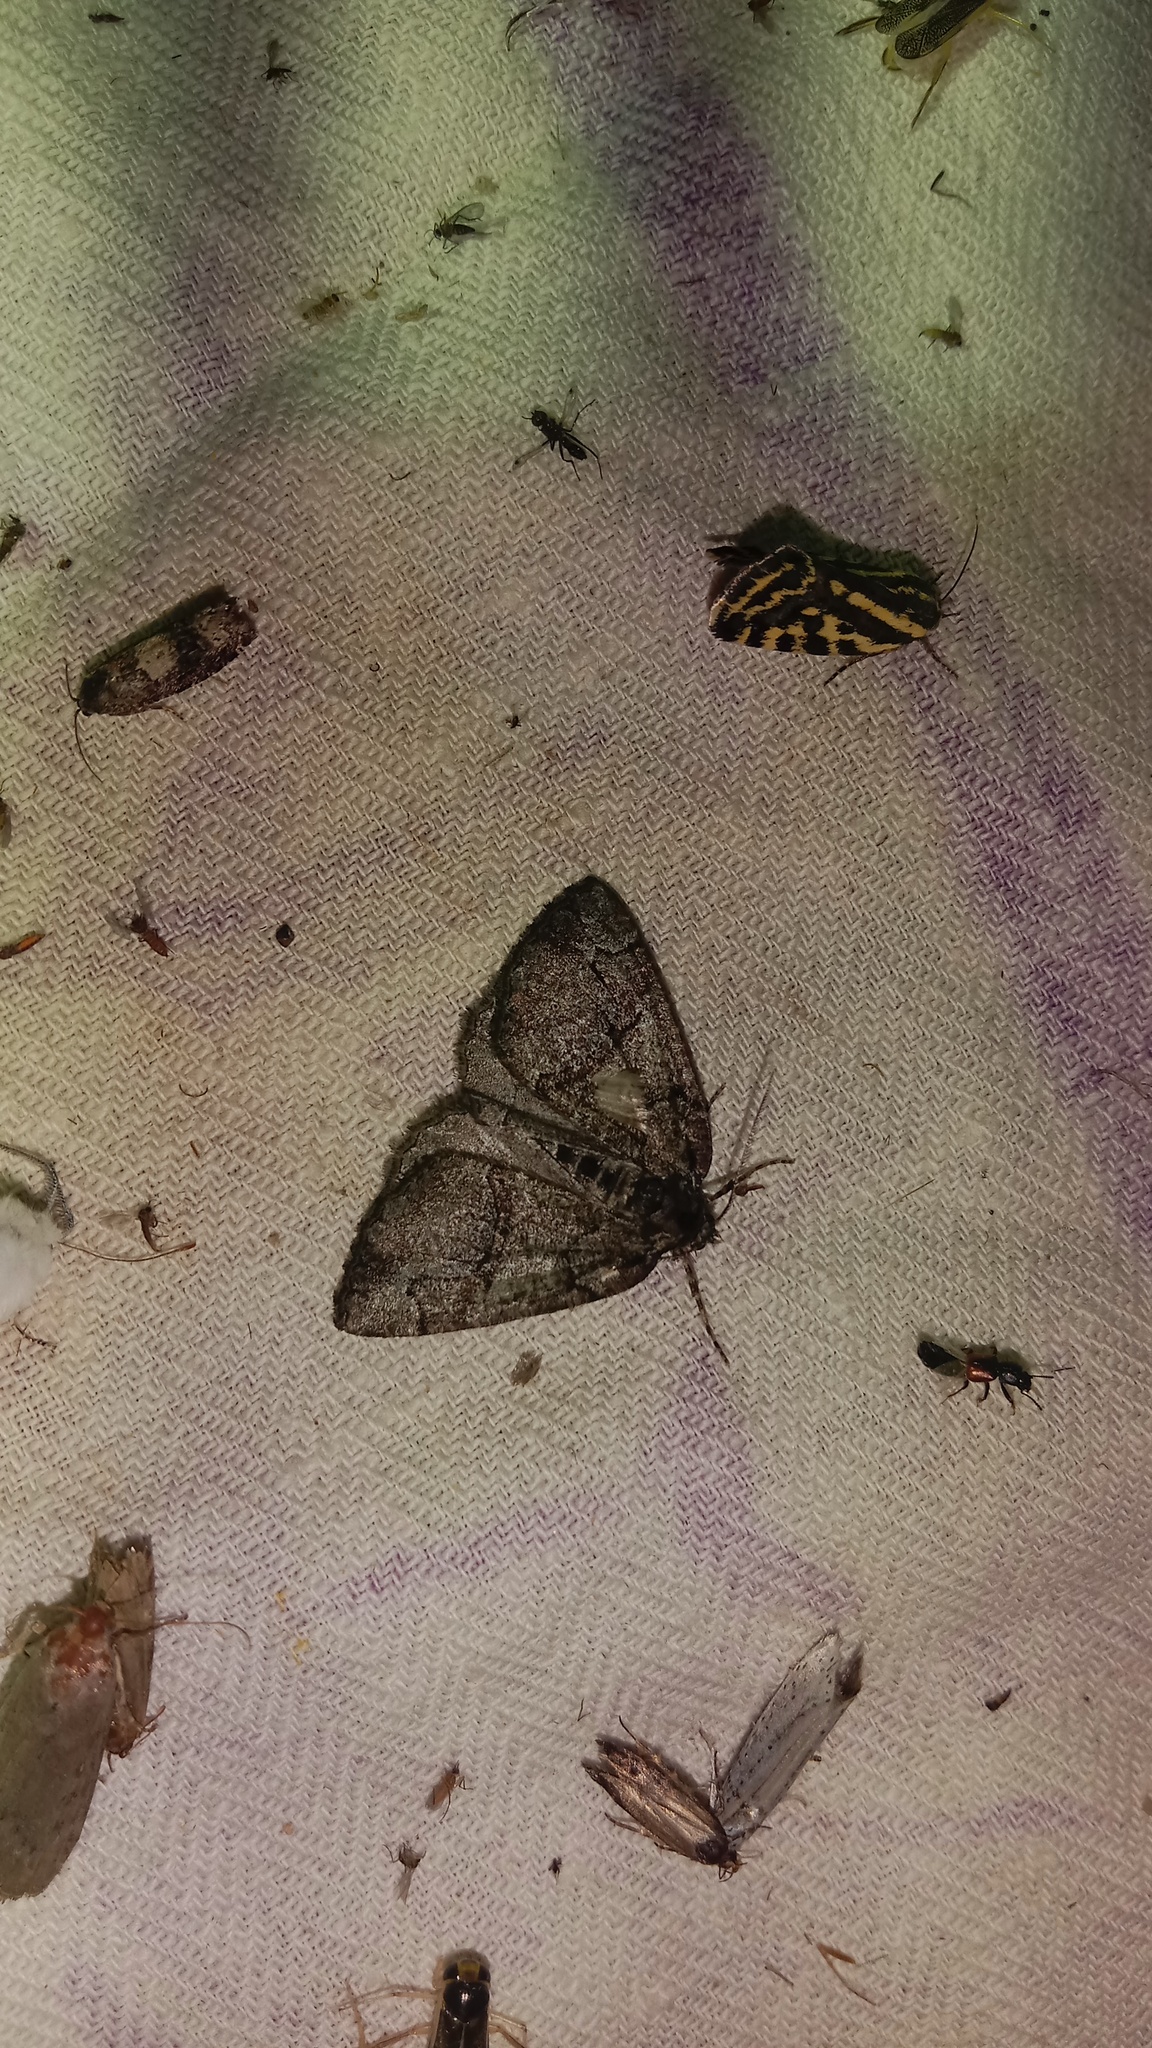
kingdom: Animalia
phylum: Arthropoda
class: Insecta
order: Lepidoptera
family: Geometridae
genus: Asovia
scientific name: Asovia maeoticaria
